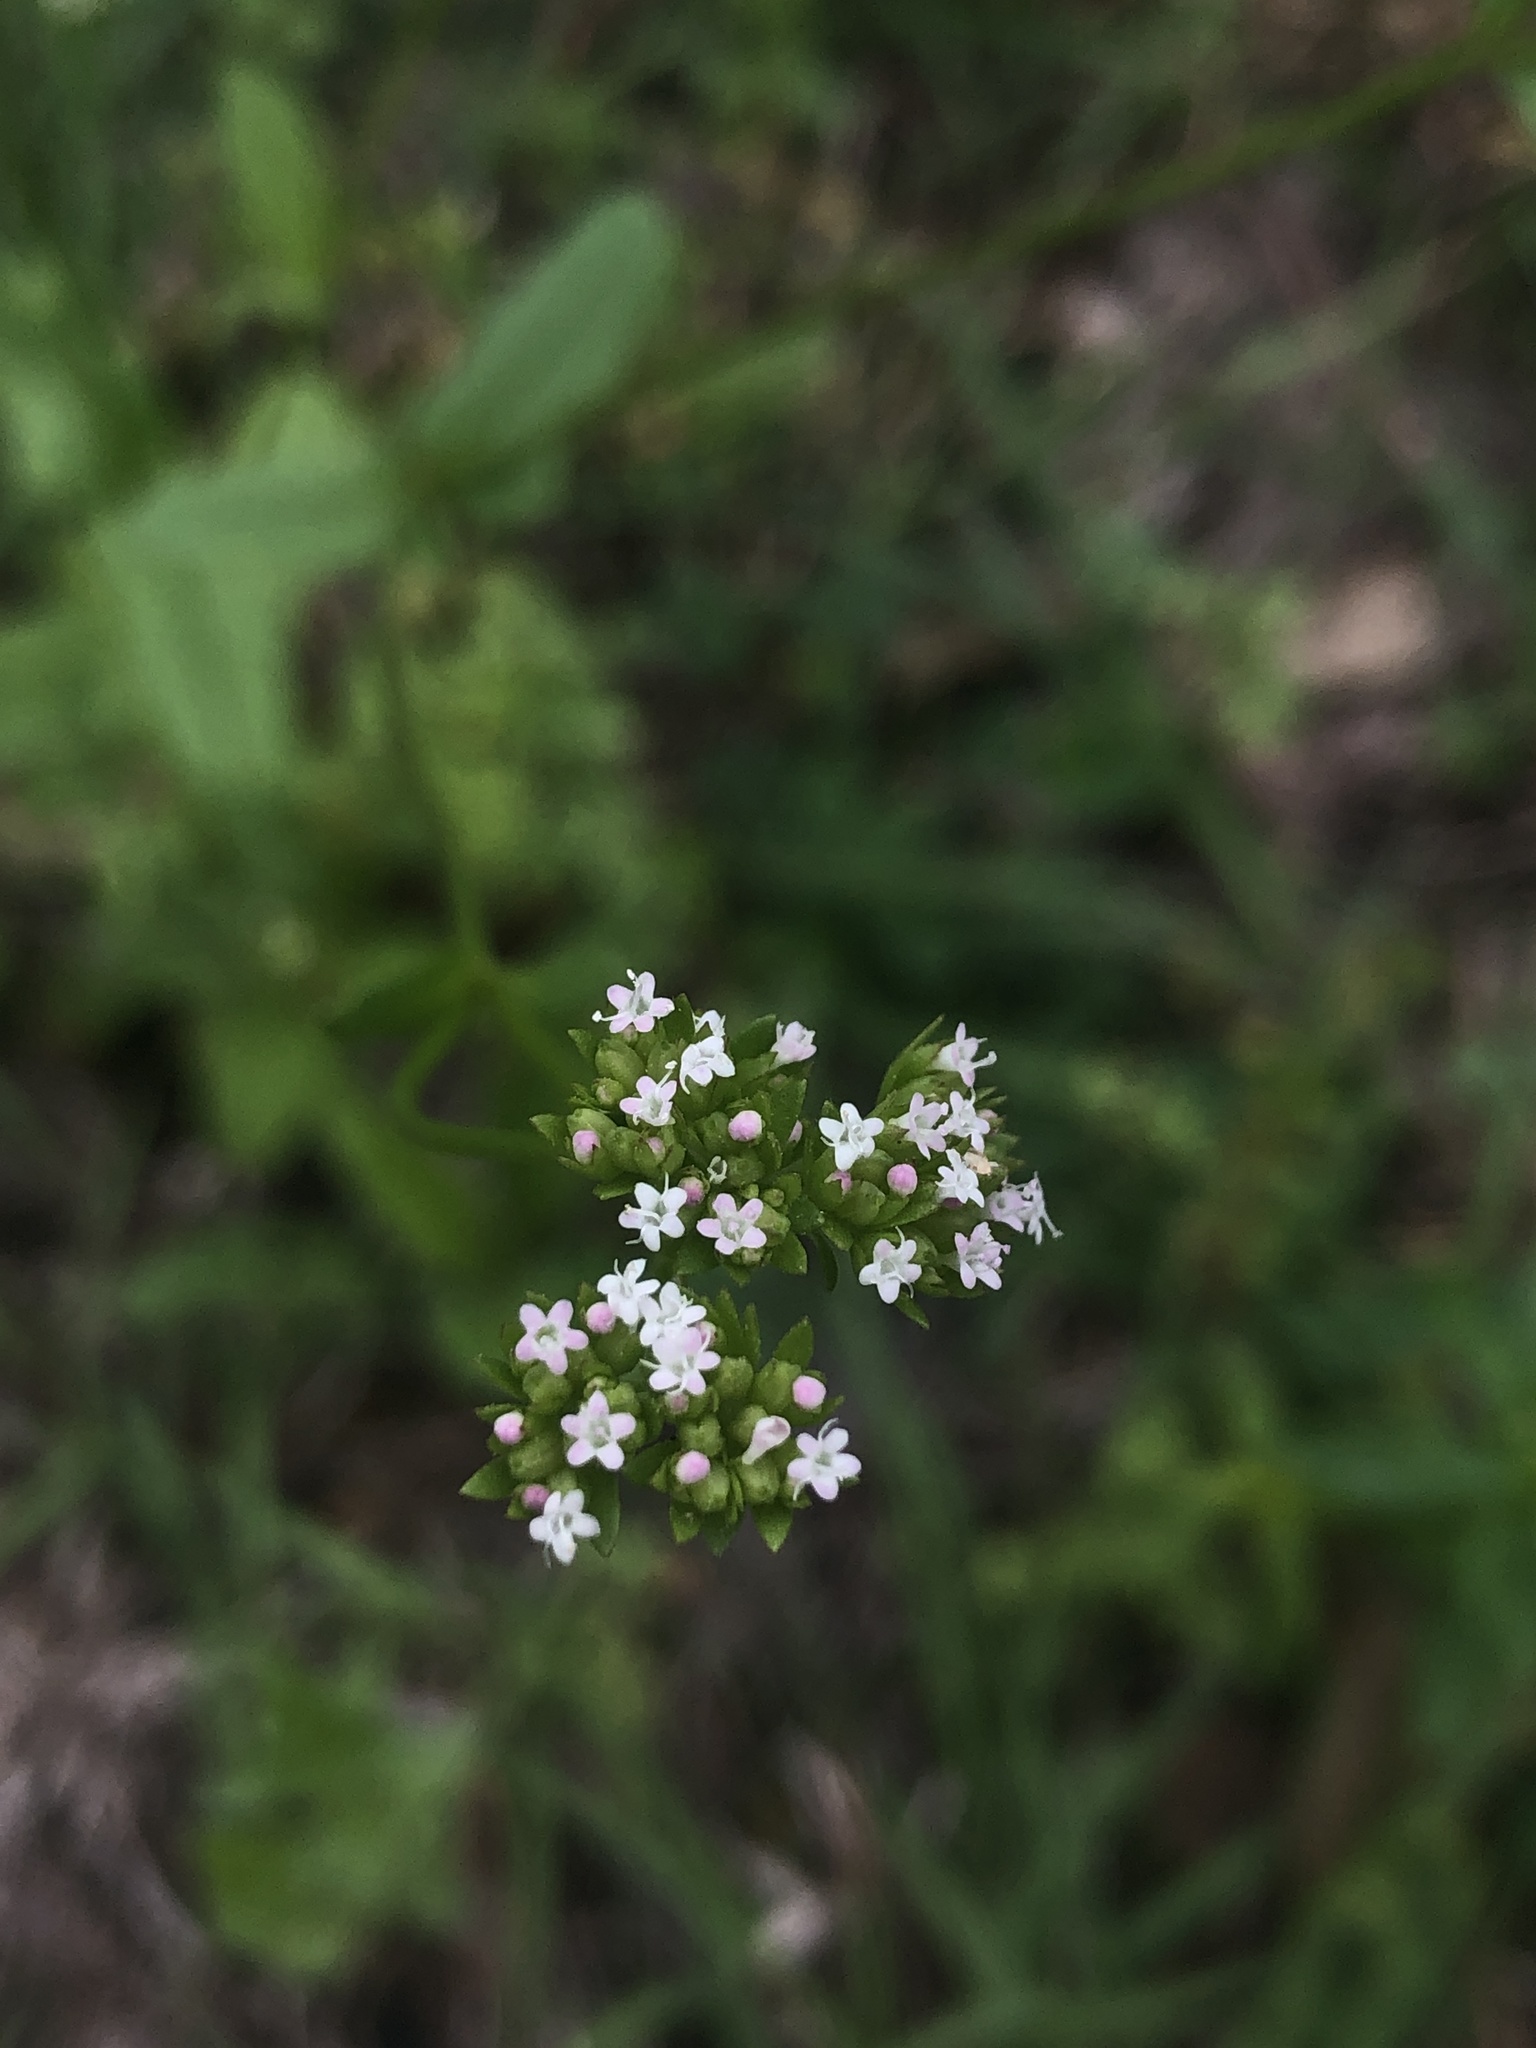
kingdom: Plantae
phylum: Tracheophyta
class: Magnoliopsida
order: Dipsacales
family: Caprifoliaceae
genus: Valerianella
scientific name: Valerianella radiata
